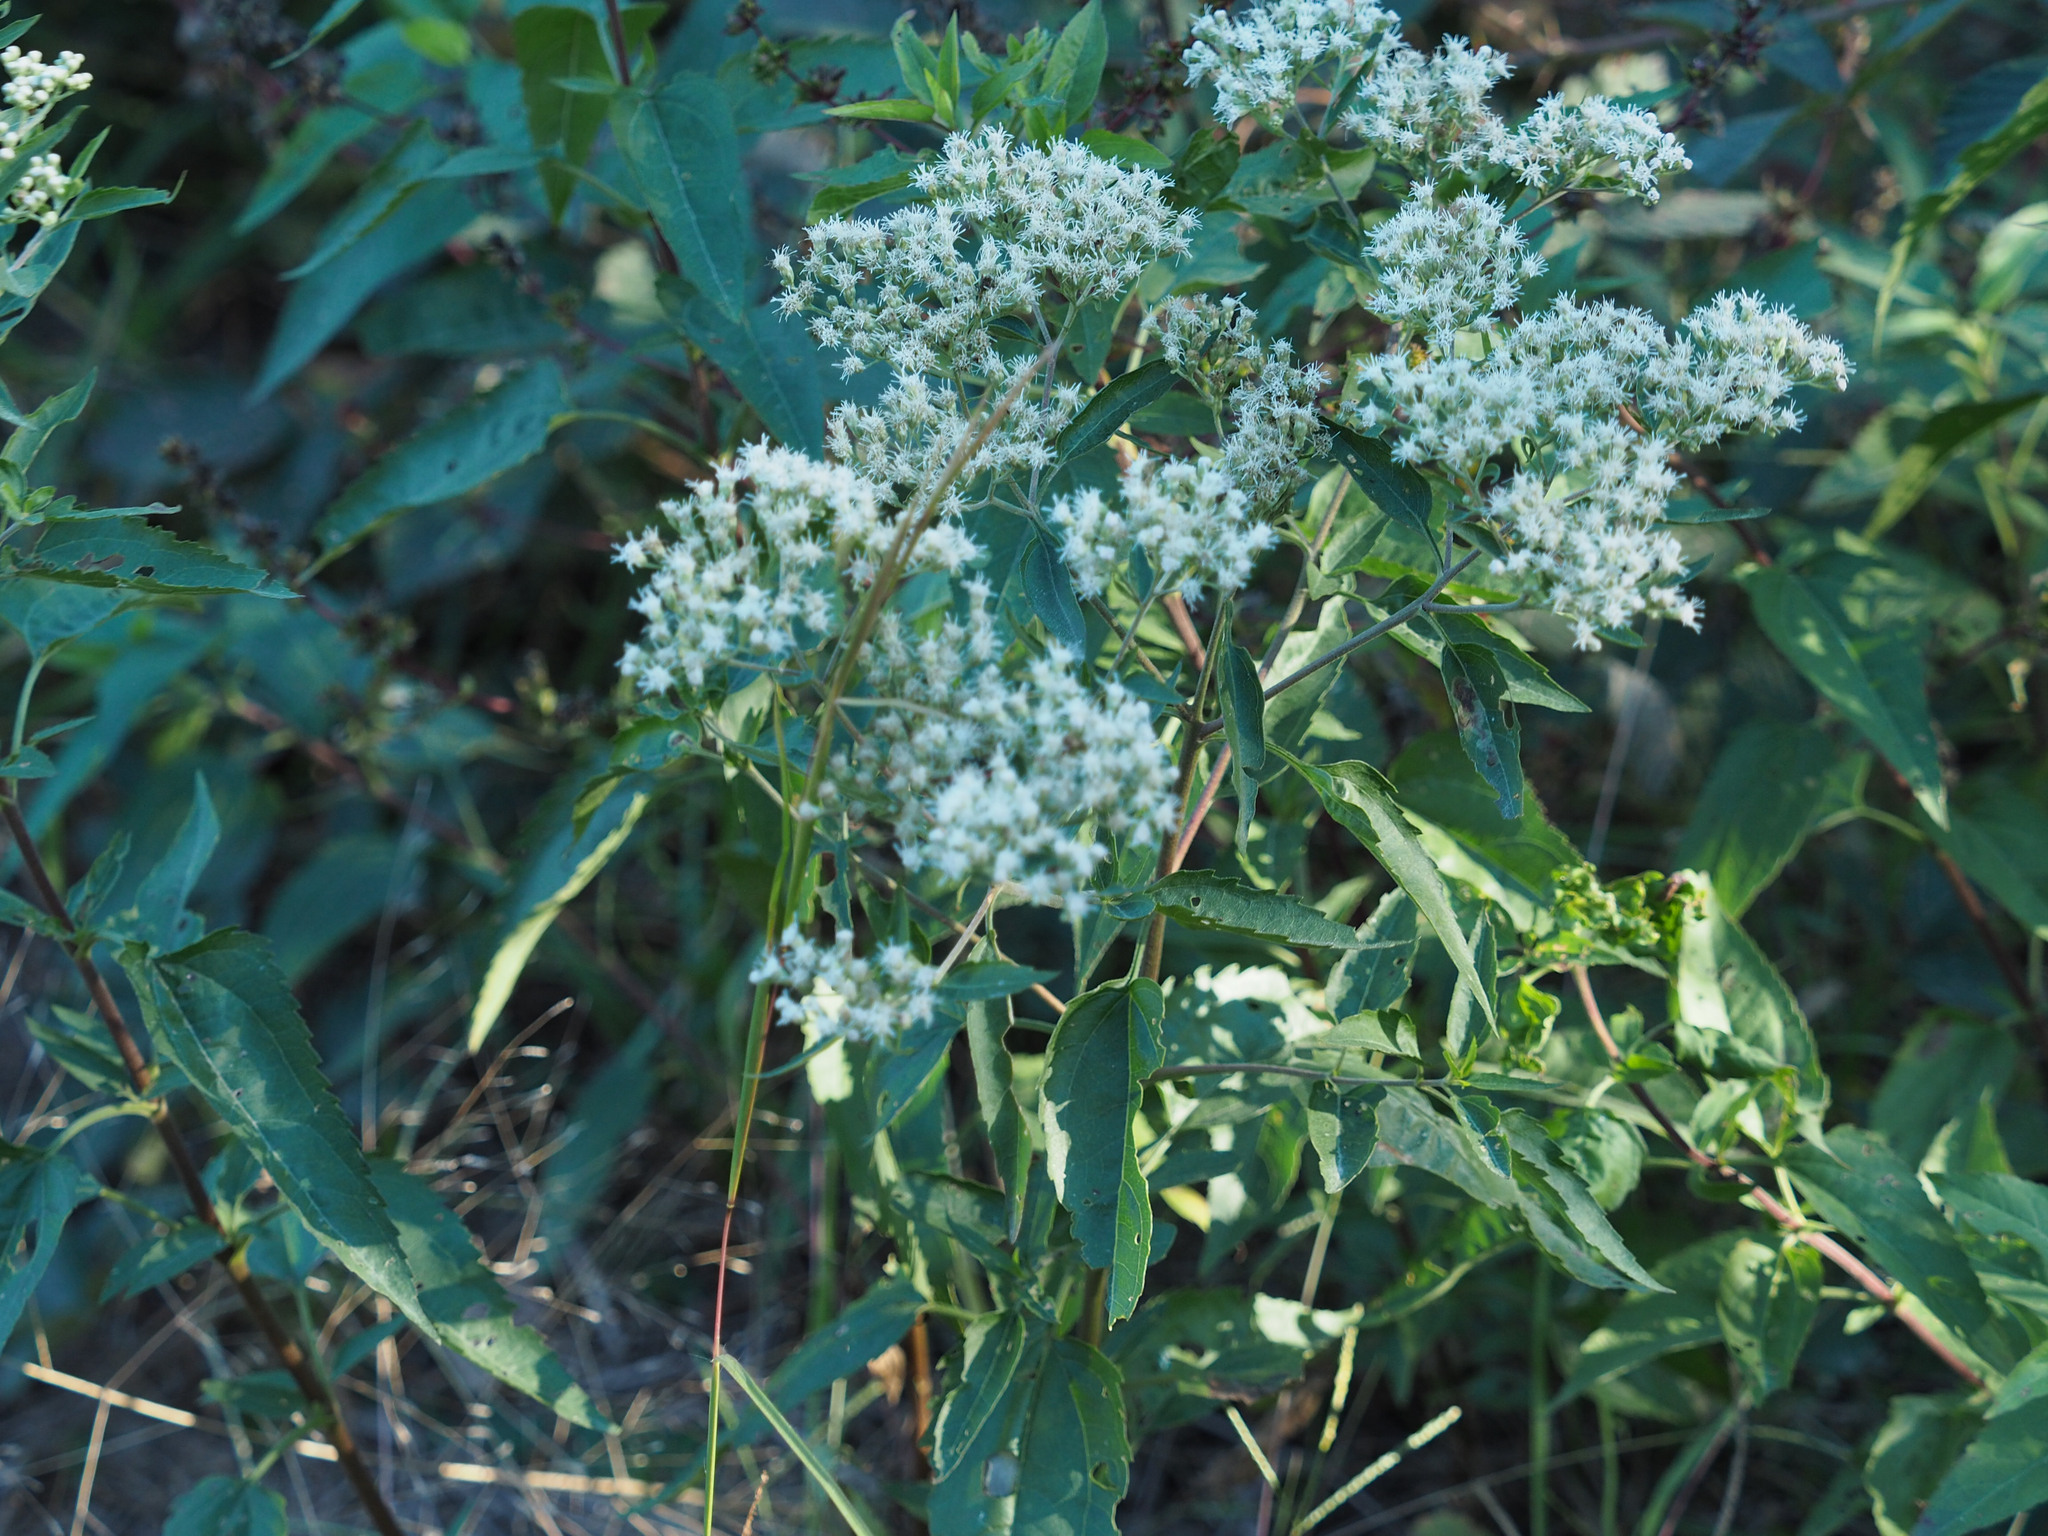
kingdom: Plantae
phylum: Tracheophyta
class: Magnoliopsida
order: Asterales
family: Asteraceae
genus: Eupatorium
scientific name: Eupatorium serotinum
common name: Late boneset
